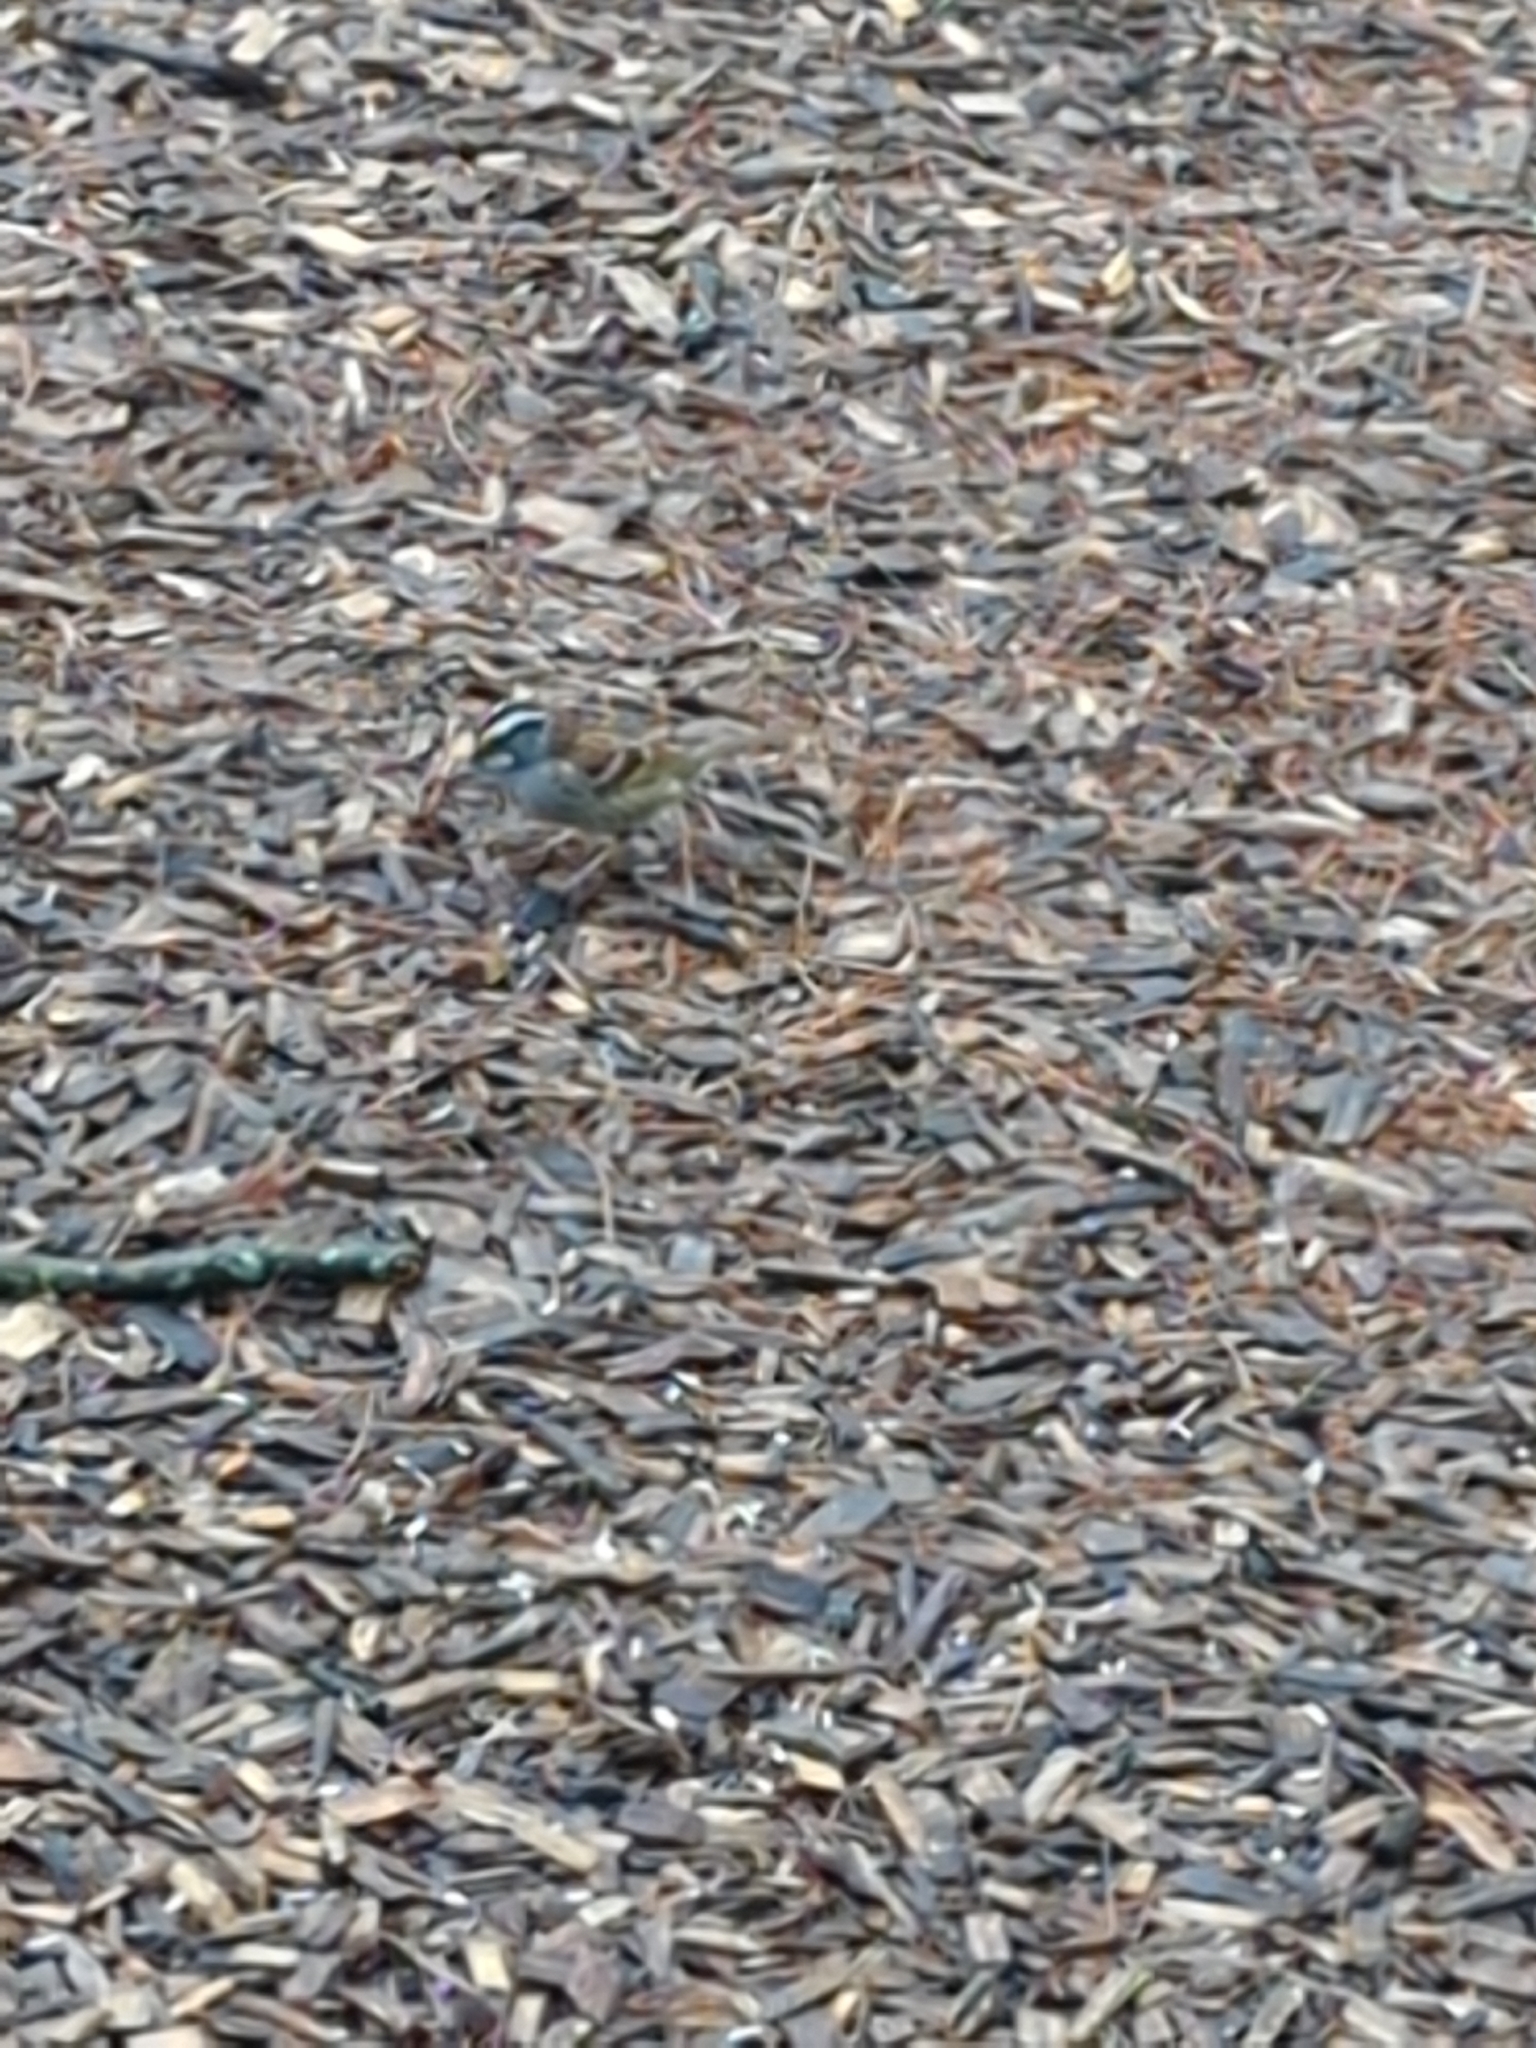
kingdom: Animalia
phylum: Chordata
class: Aves
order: Passeriformes
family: Passerellidae
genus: Zonotrichia
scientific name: Zonotrichia albicollis
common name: White-throated sparrow
